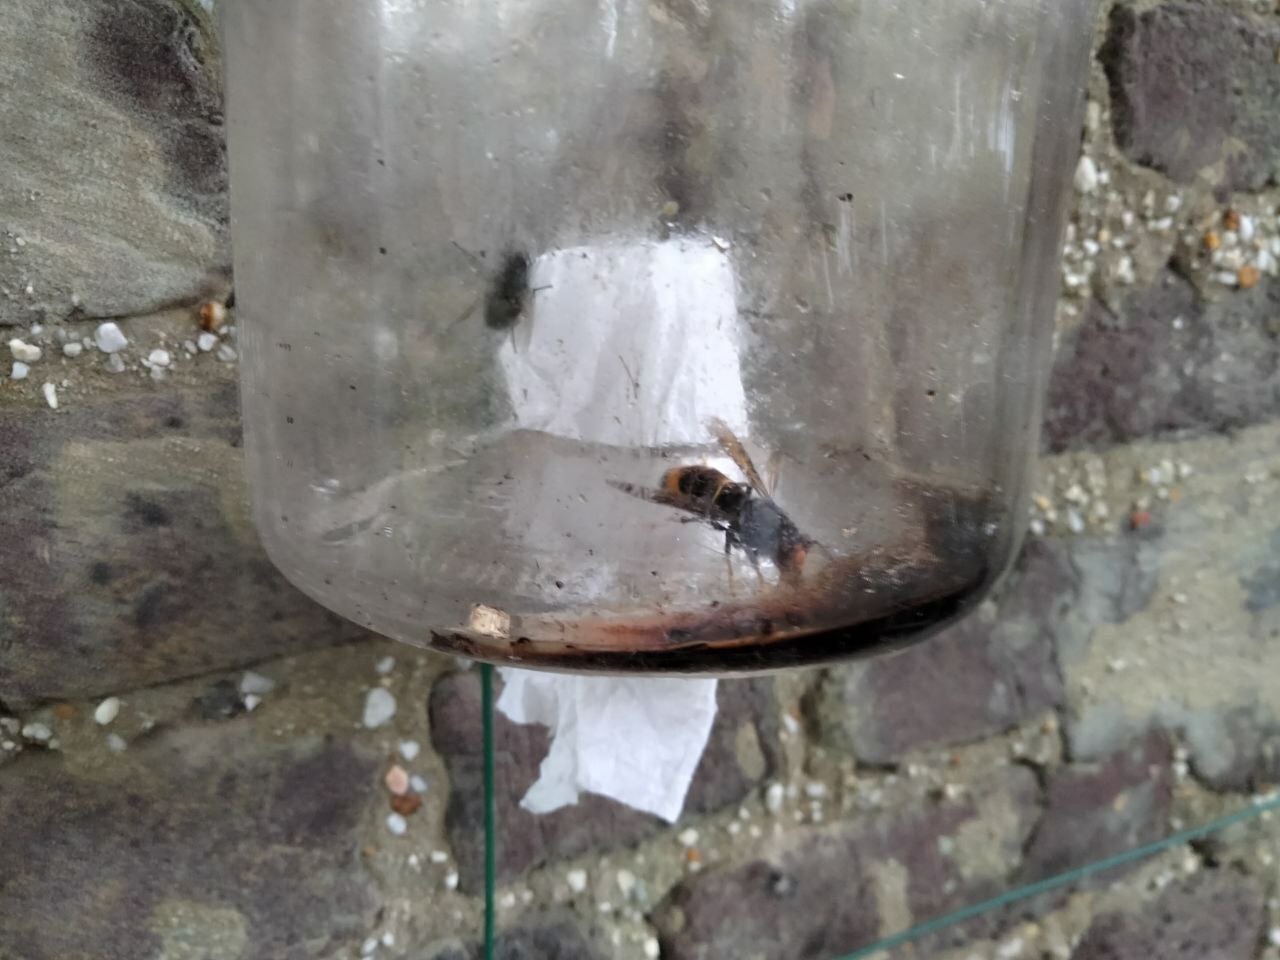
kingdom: Animalia
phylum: Arthropoda
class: Insecta
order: Hymenoptera
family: Vespidae
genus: Vespa
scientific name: Vespa velutina
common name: Asian hornet
